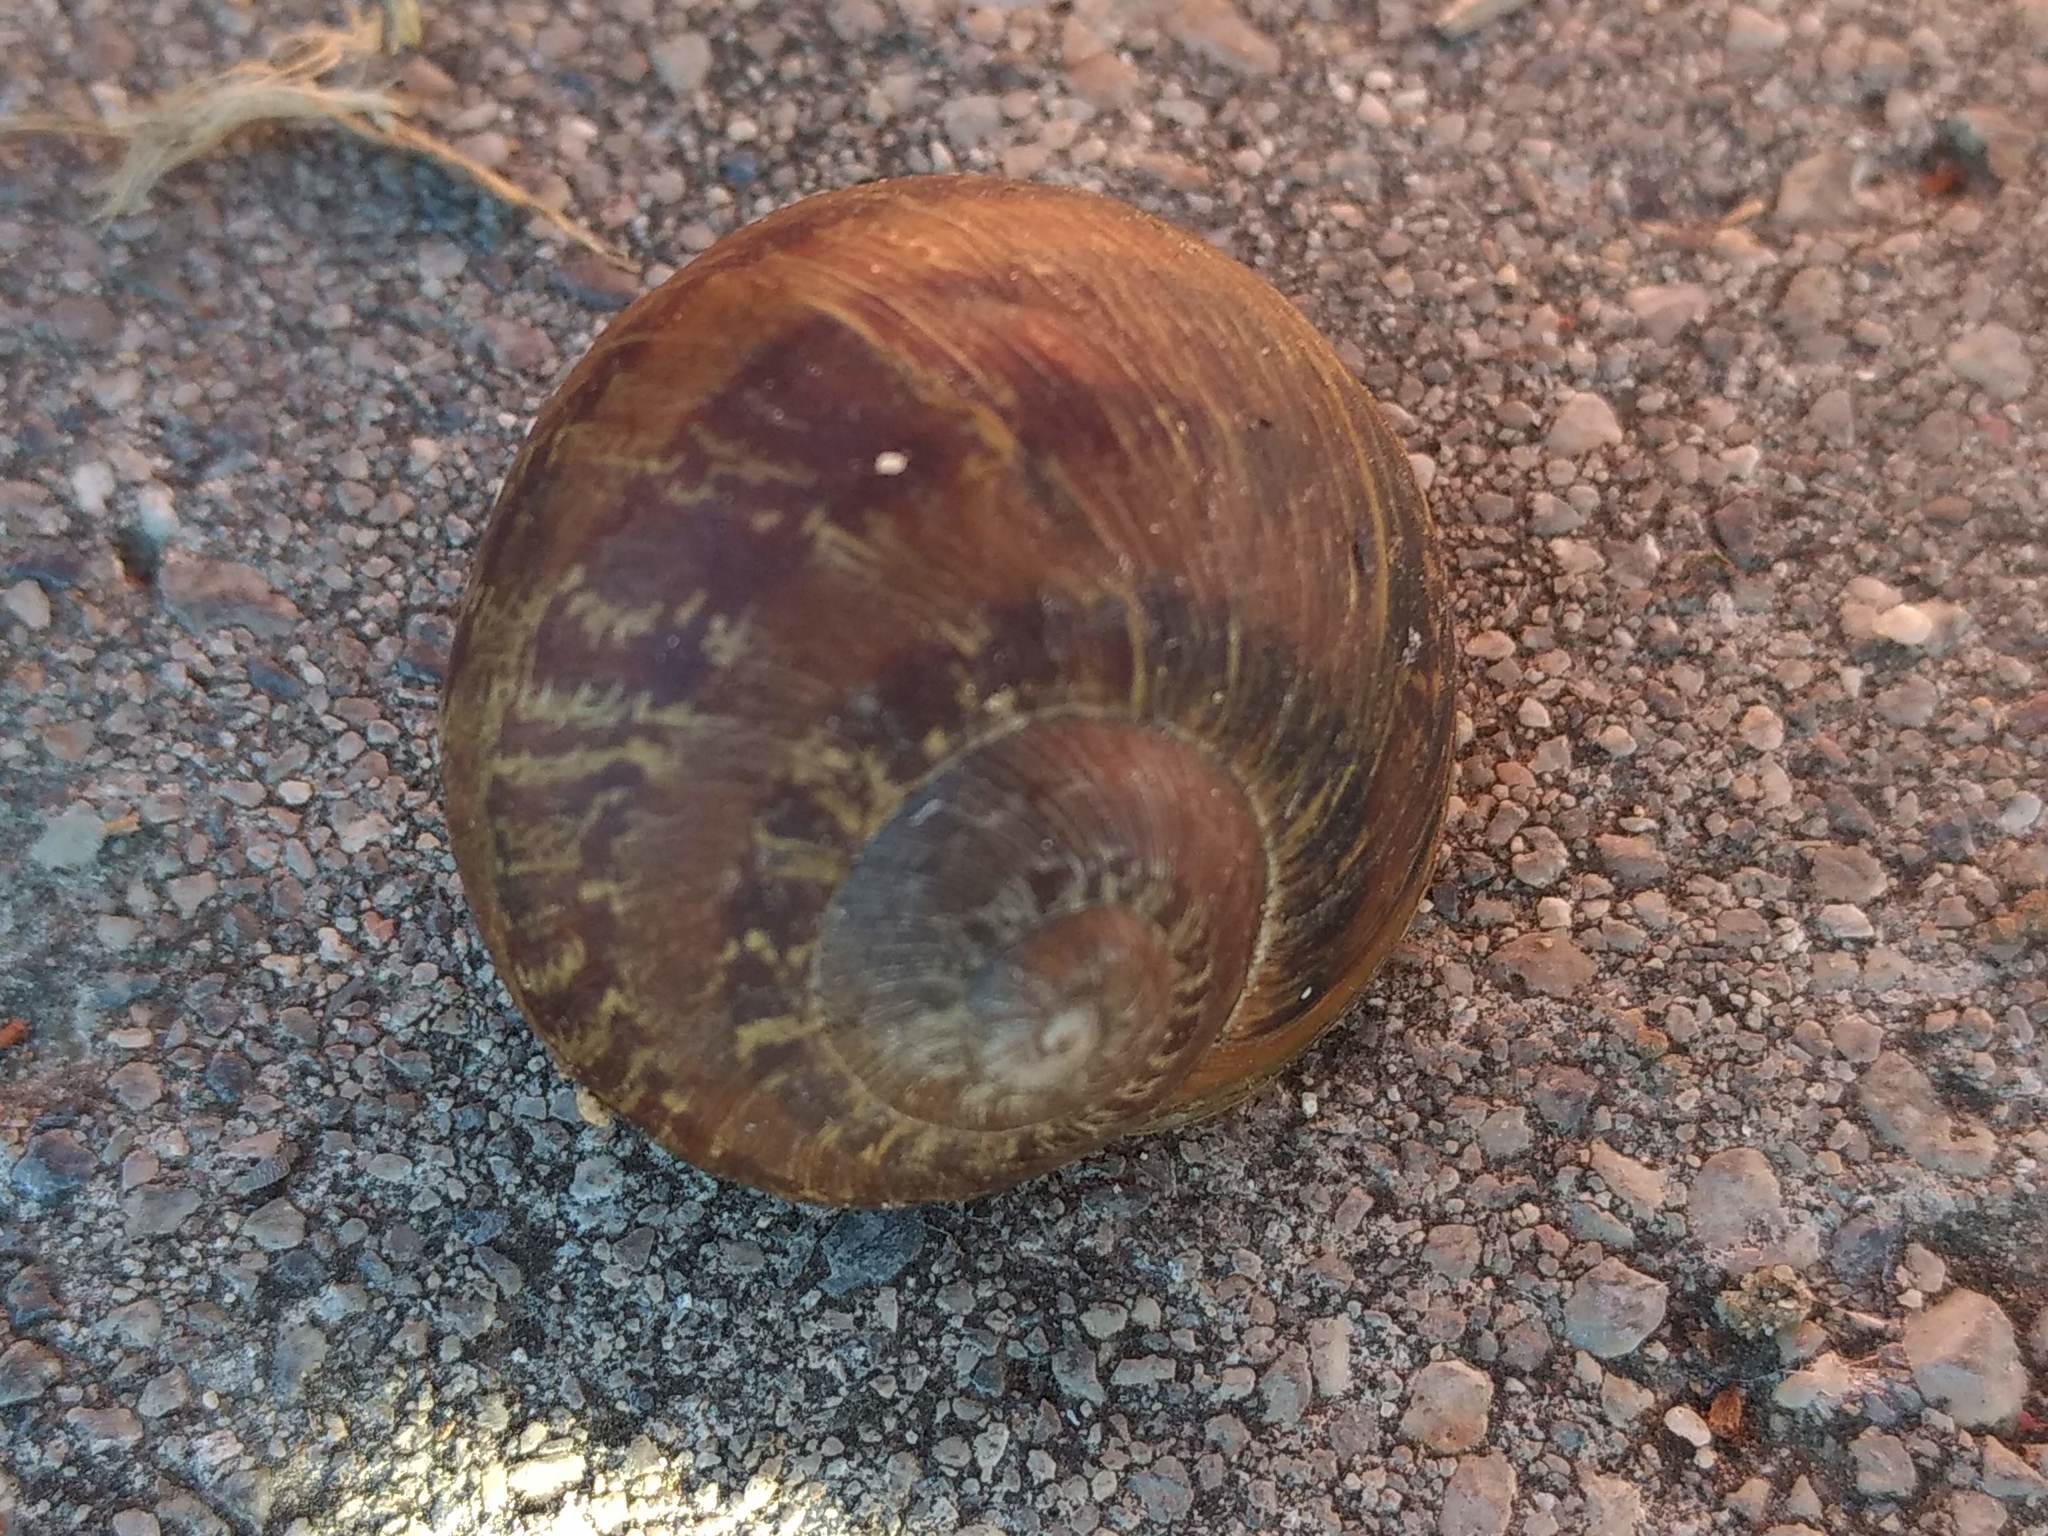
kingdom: Animalia
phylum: Mollusca
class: Gastropoda
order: Stylommatophora
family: Helicidae
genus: Cornu
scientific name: Cornu aspersum
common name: Brown garden snail
